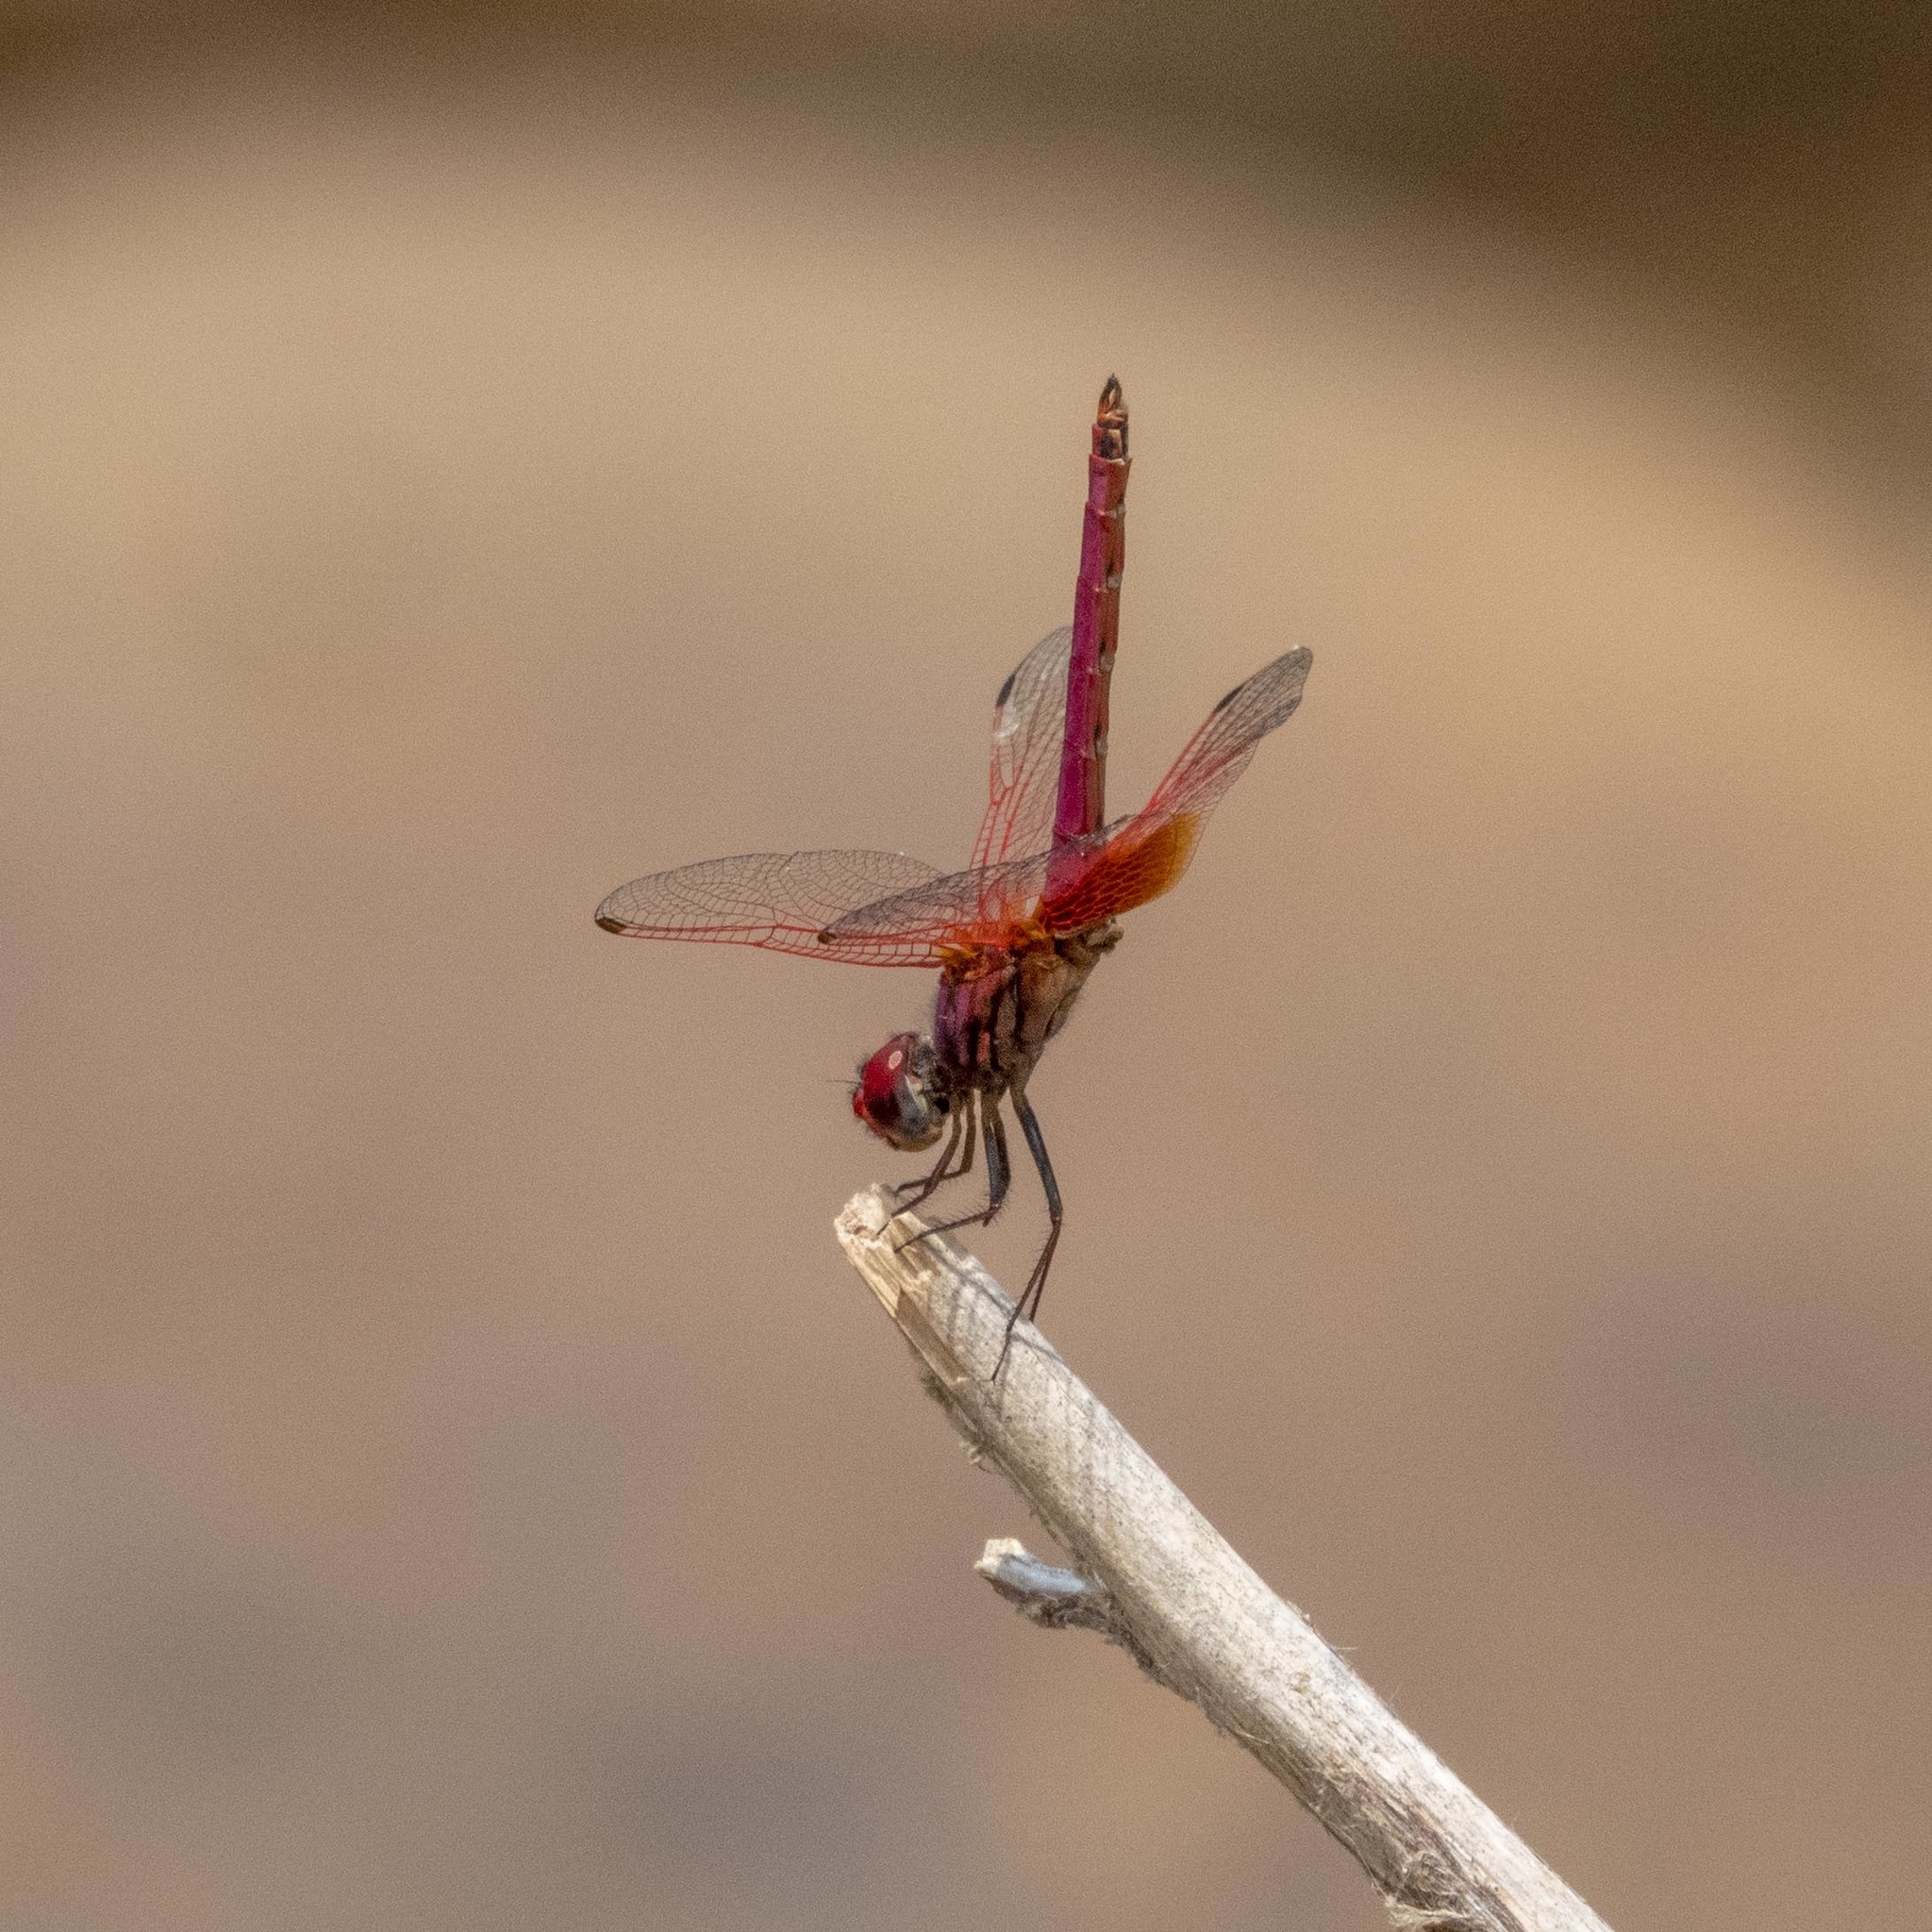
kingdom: Animalia
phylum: Arthropoda
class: Insecta
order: Odonata
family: Libellulidae
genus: Trithemis
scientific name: Trithemis aurora
